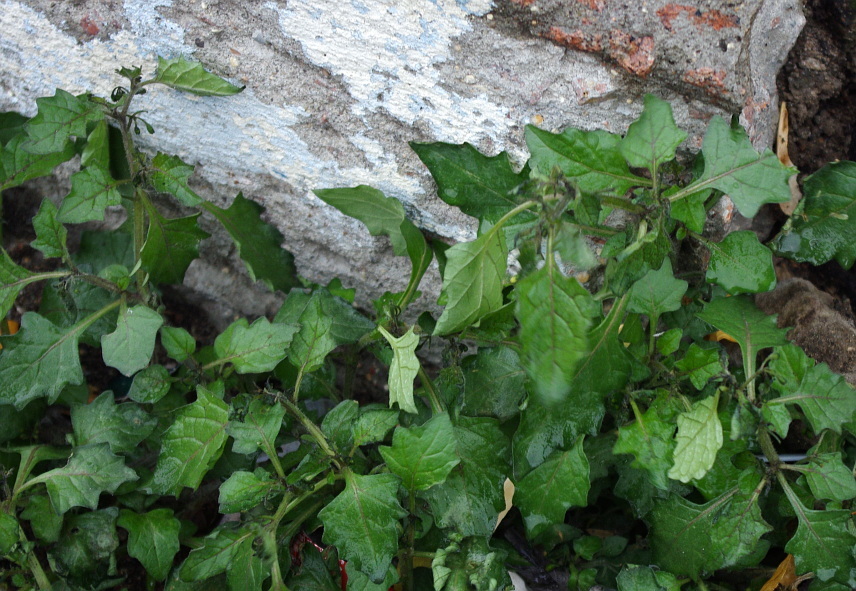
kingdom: Plantae
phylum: Tracheophyta
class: Magnoliopsida
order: Solanales
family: Solanaceae
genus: Solanum
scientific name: Solanum nigrum
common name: Black nightshade
